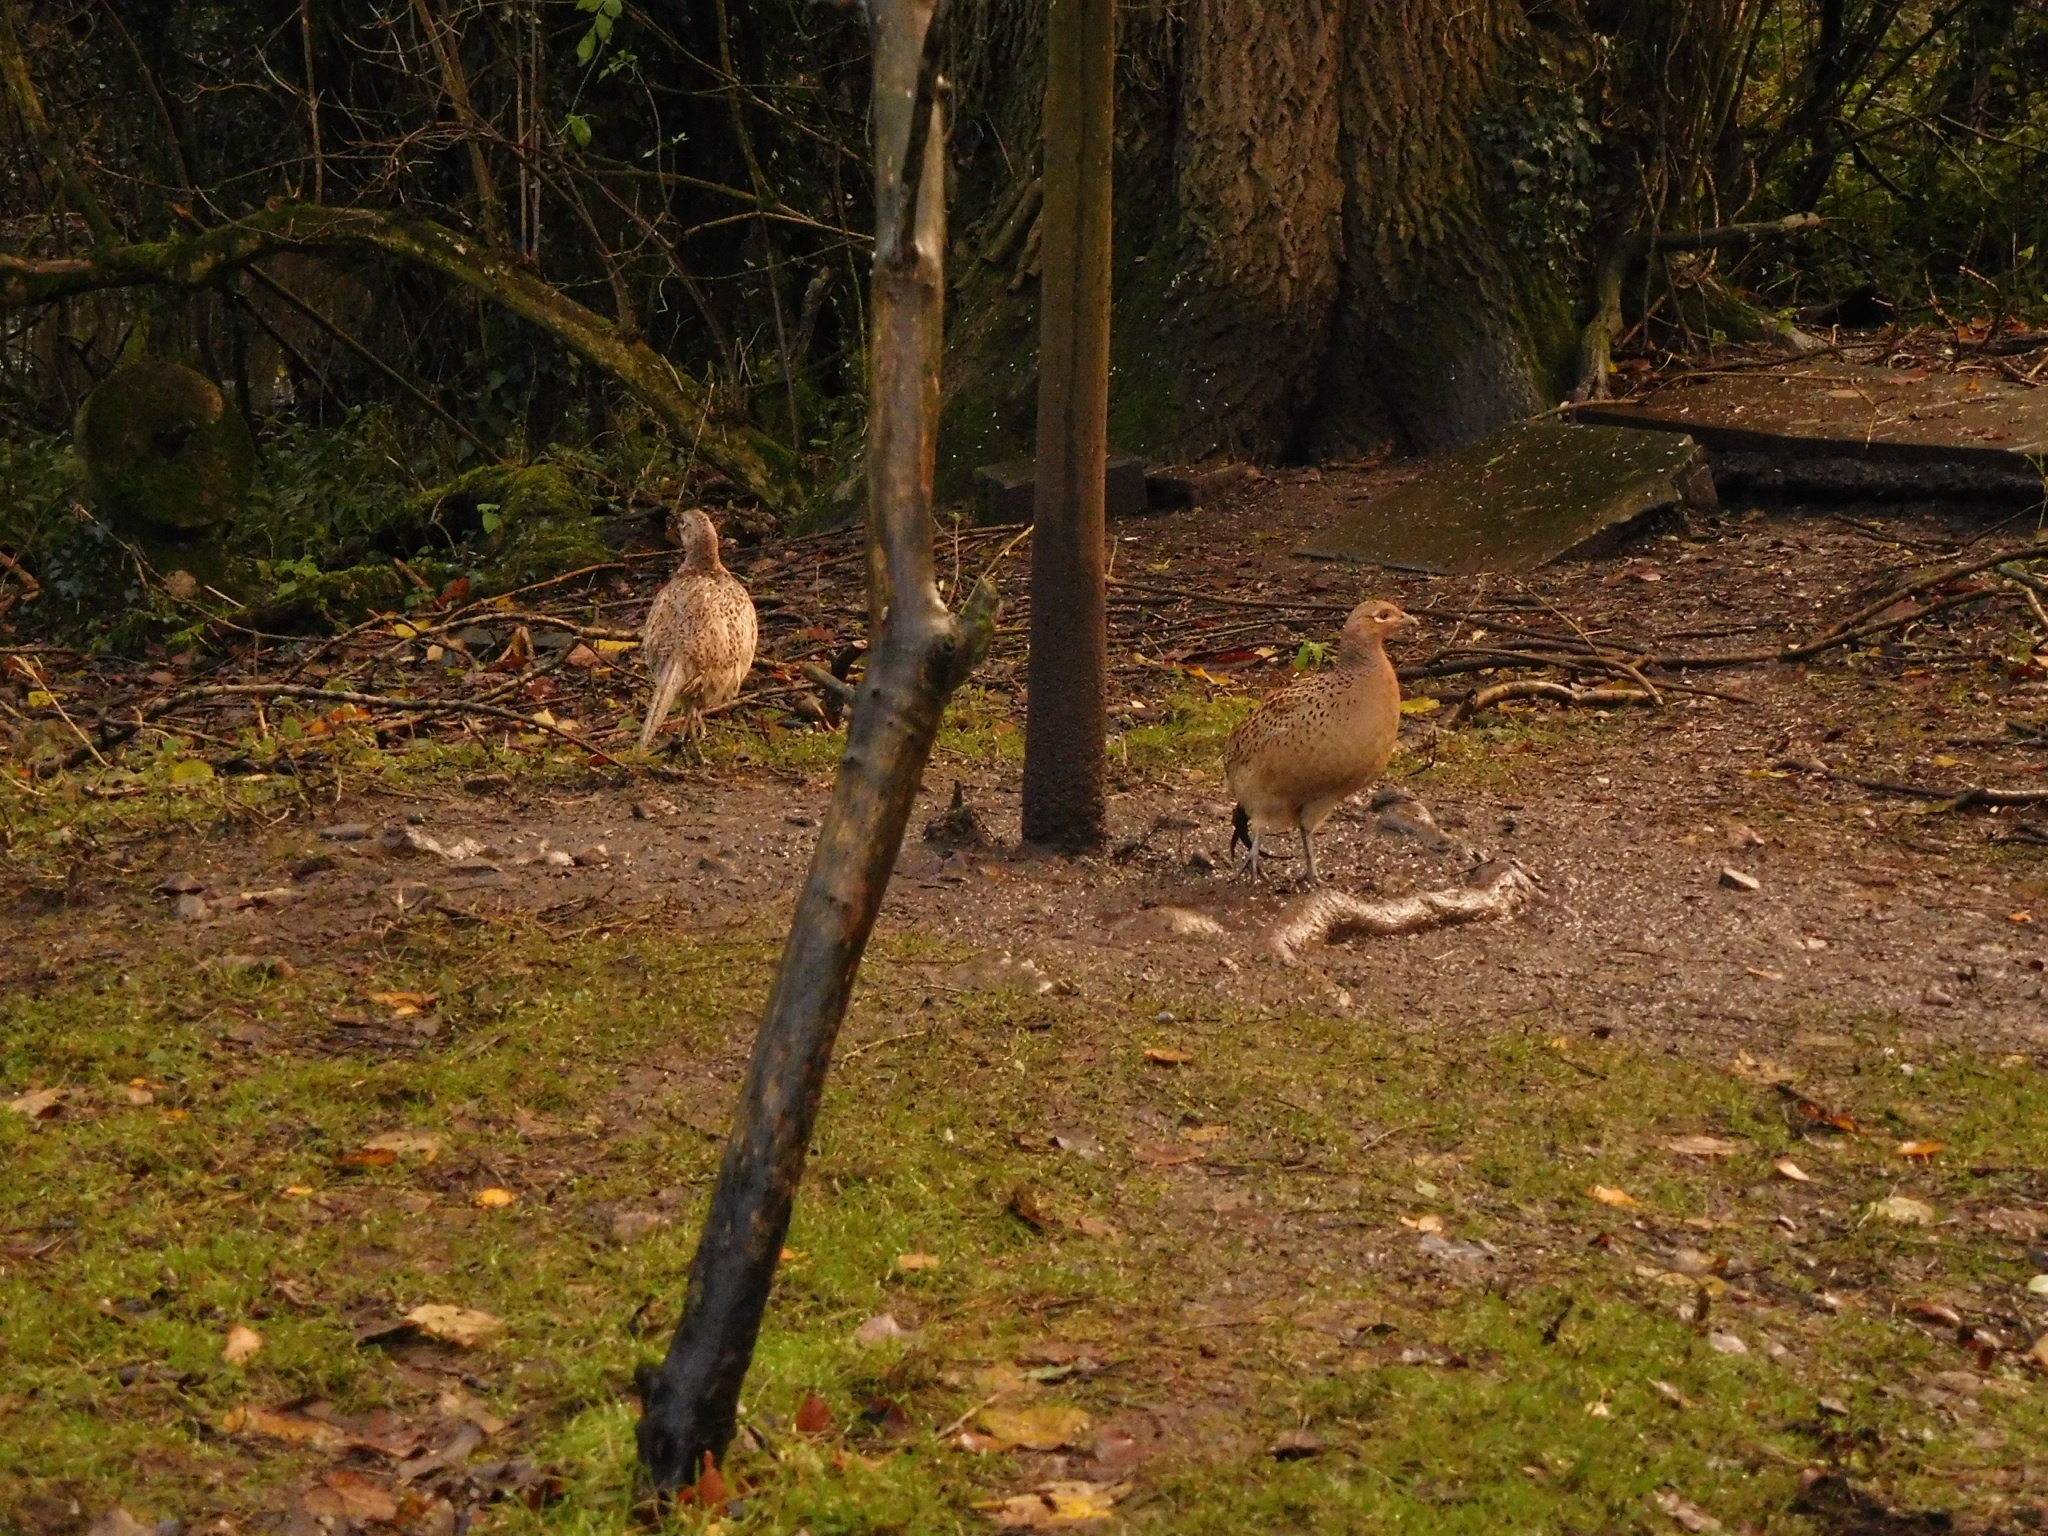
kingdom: Animalia
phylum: Chordata
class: Aves
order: Galliformes
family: Phasianidae
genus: Phasianus
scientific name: Phasianus colchicus
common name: Common pheasant
